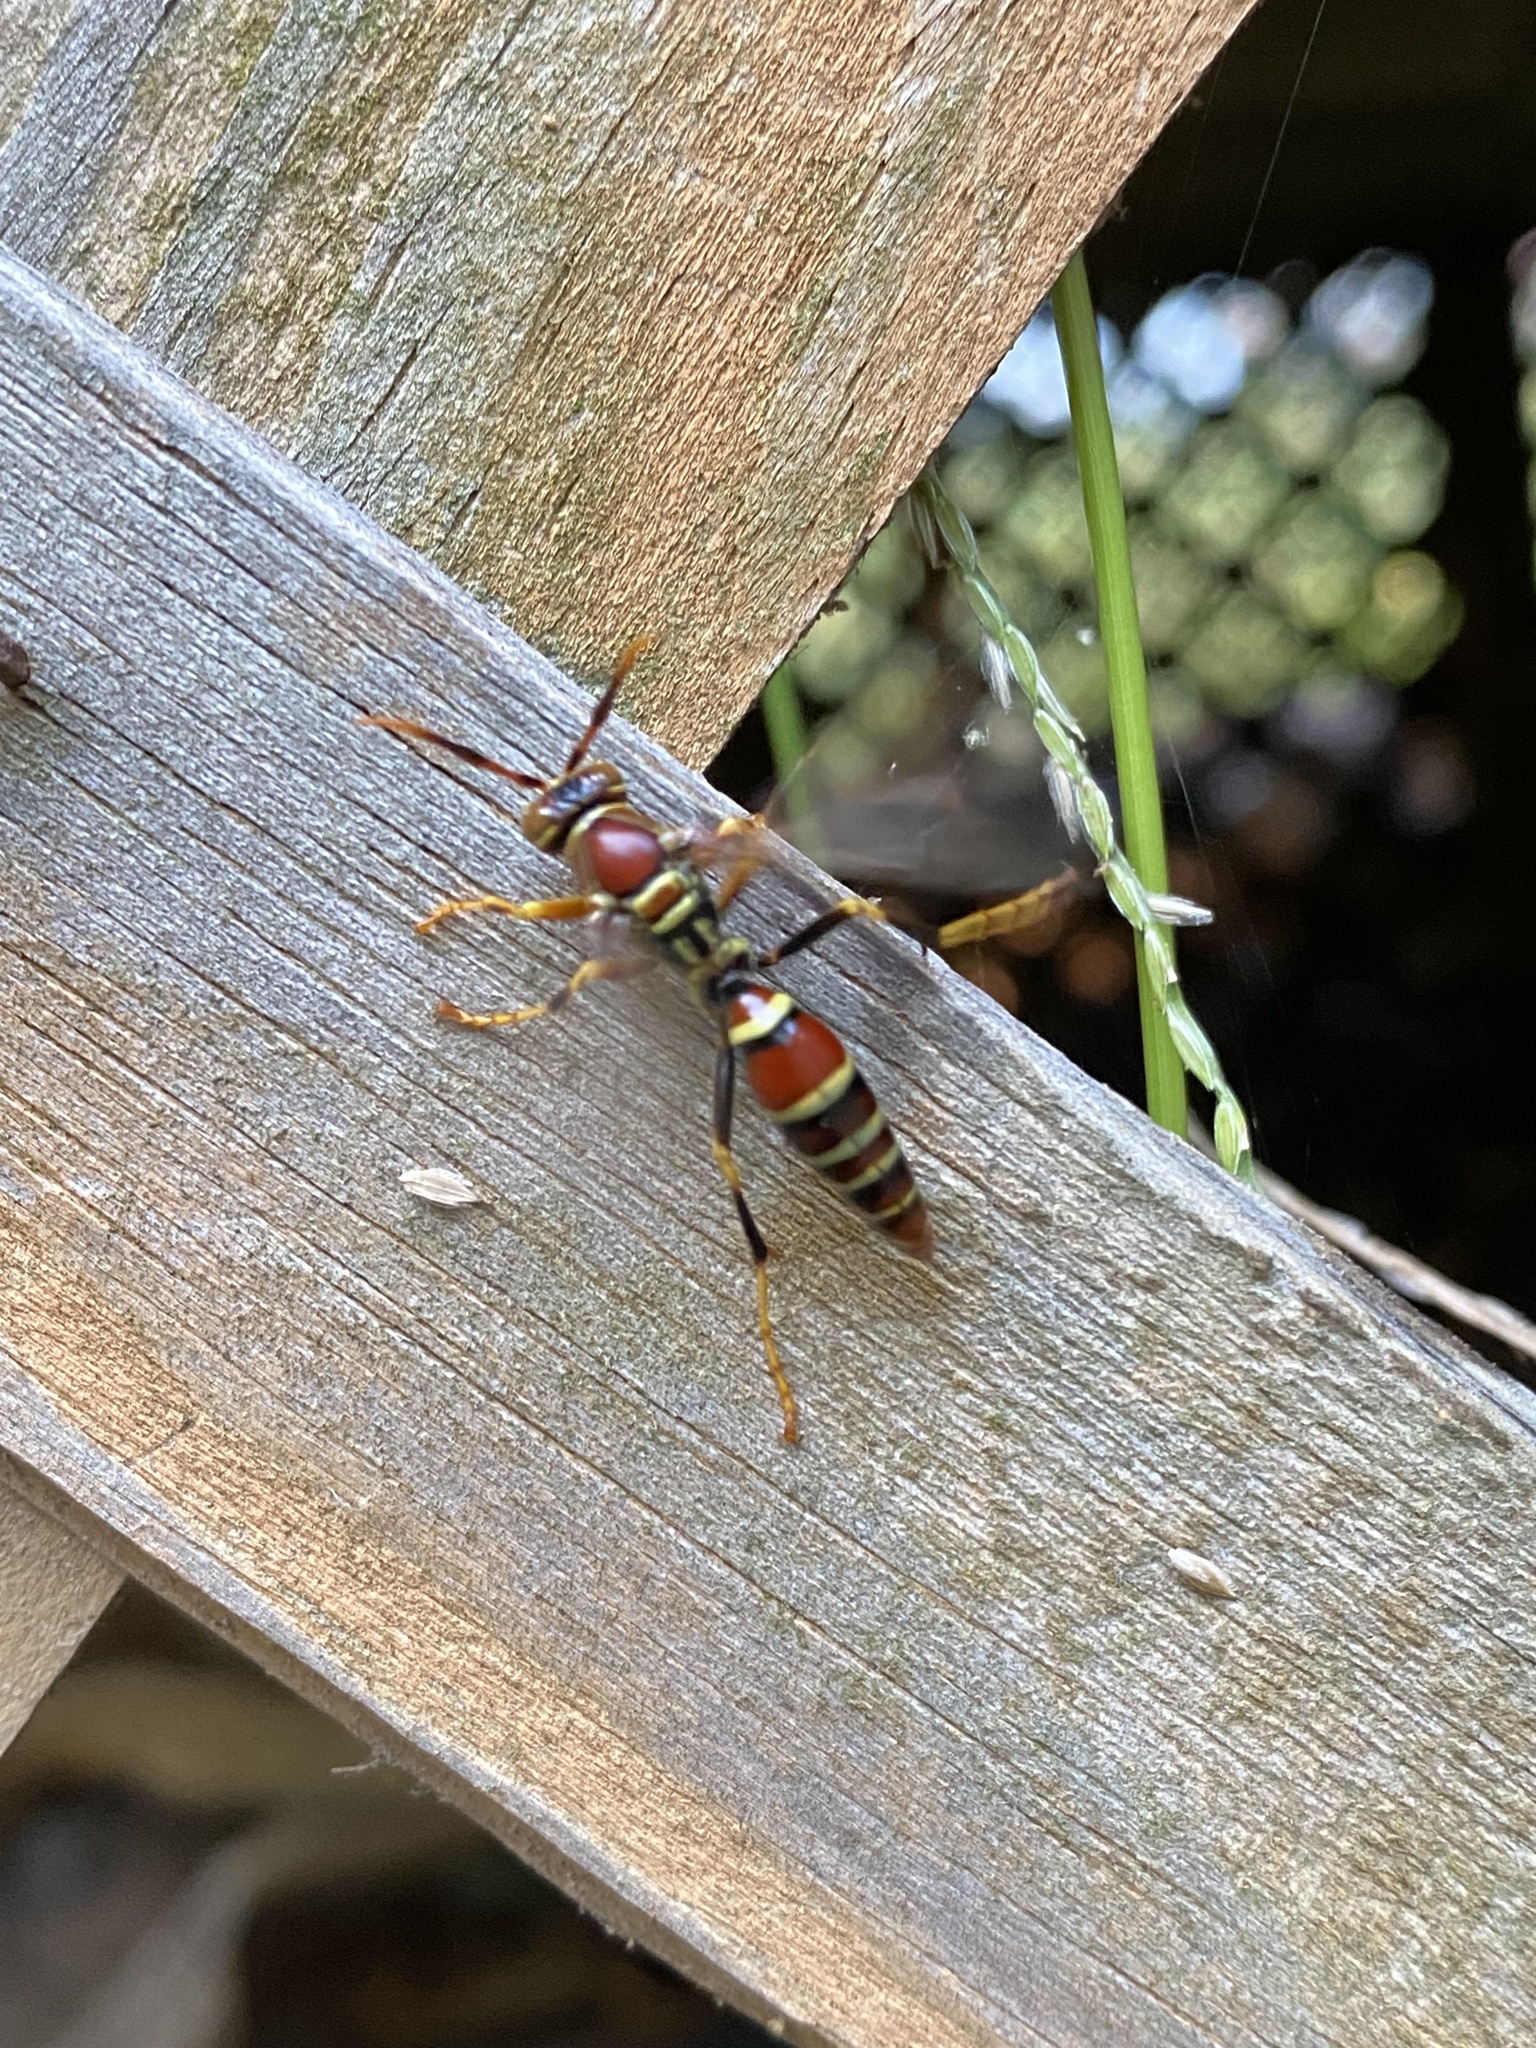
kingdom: Animalia
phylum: Arthropoda
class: Insecta
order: Hymenoptera
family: Eumenidae
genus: Polistes
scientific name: Polistes exclamans
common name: Paper wasp
